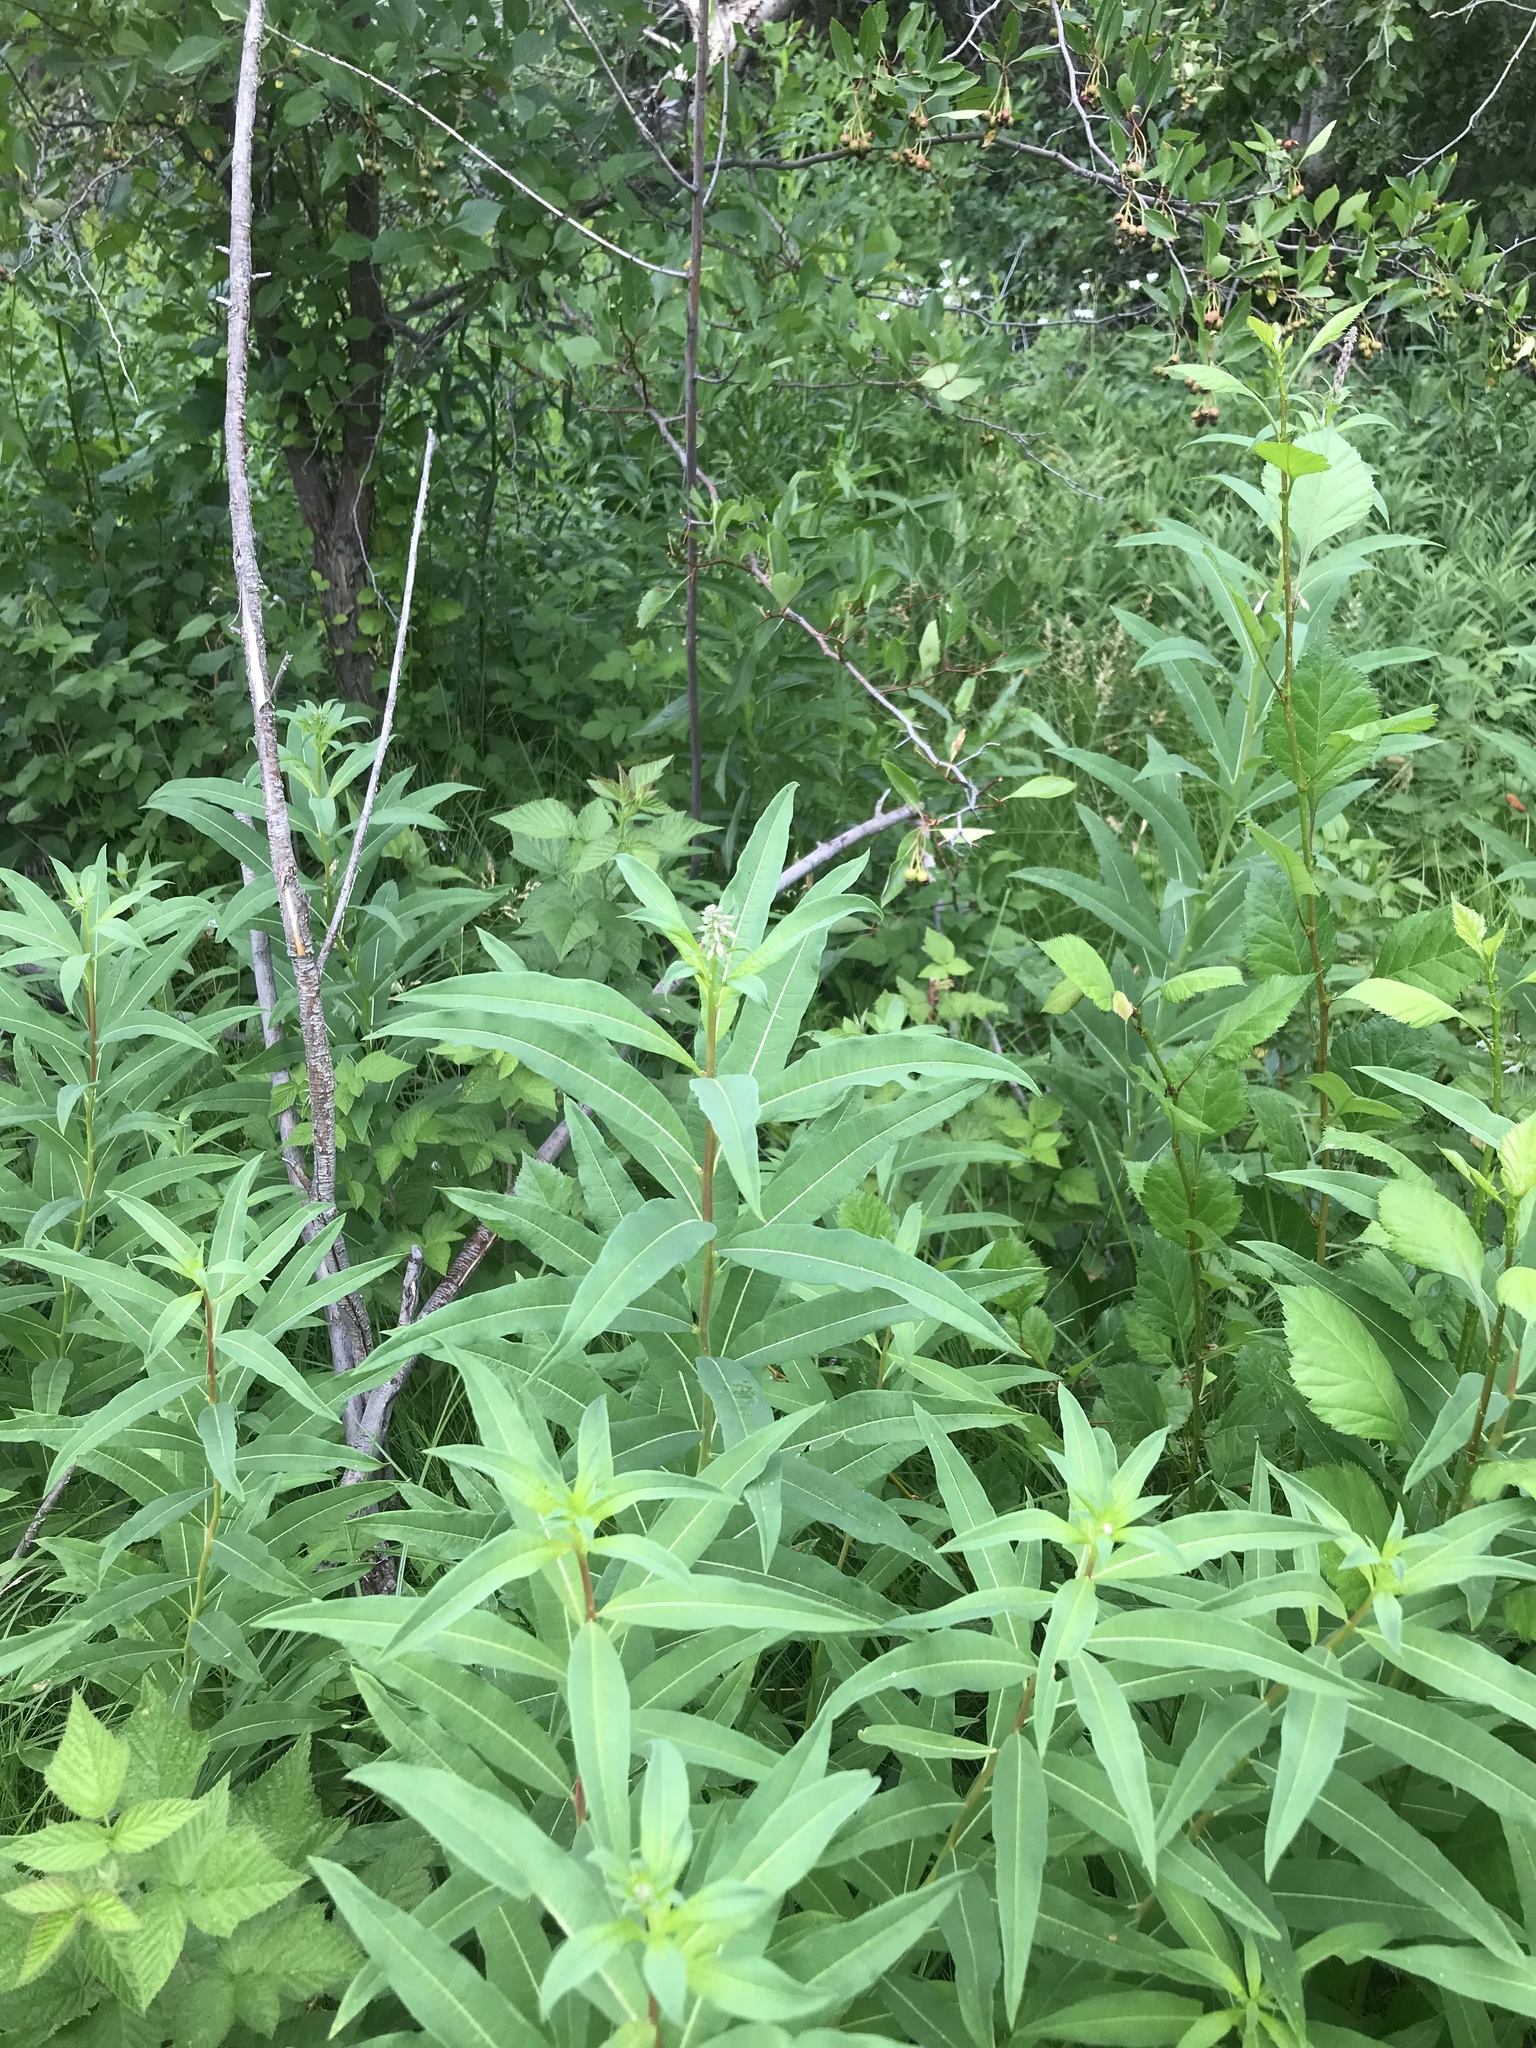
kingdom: Plantae
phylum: Tracheophyta
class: Magnoliopsida
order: Myrtales
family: Onagraceae
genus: Chamaenerion
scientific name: Chamaenerion angustifolium
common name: Fireweed
